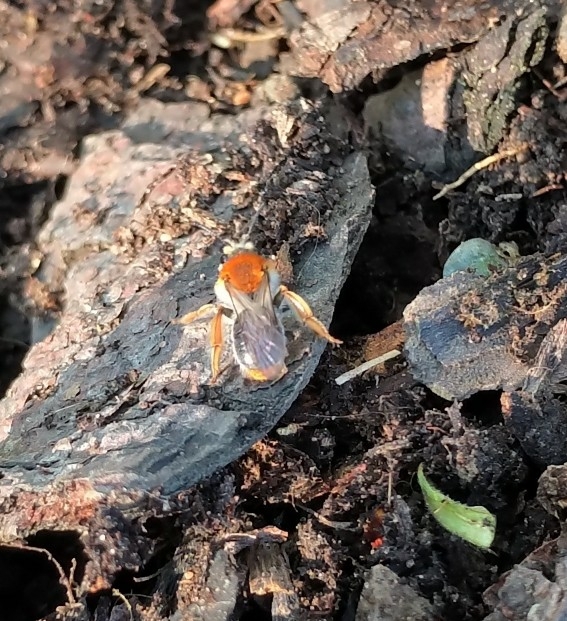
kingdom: Animalia
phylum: Arthropoda
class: Insecta
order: Hymenoptera
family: Andrenidae
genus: Andrena
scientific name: Andrena haemorrhoa
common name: Early mining bee
